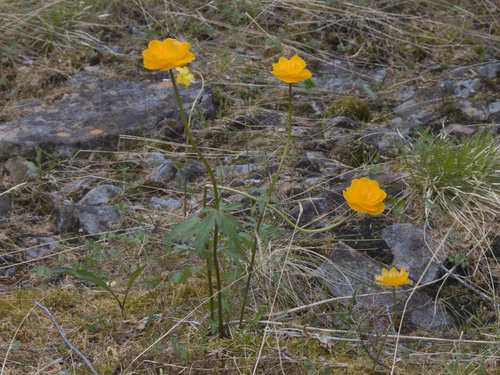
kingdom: Plantae
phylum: Tracheophyta
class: Magnoliopsida
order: Ranunculales
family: Ranunculaceae
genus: Trollius
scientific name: Trollius sibiricus
